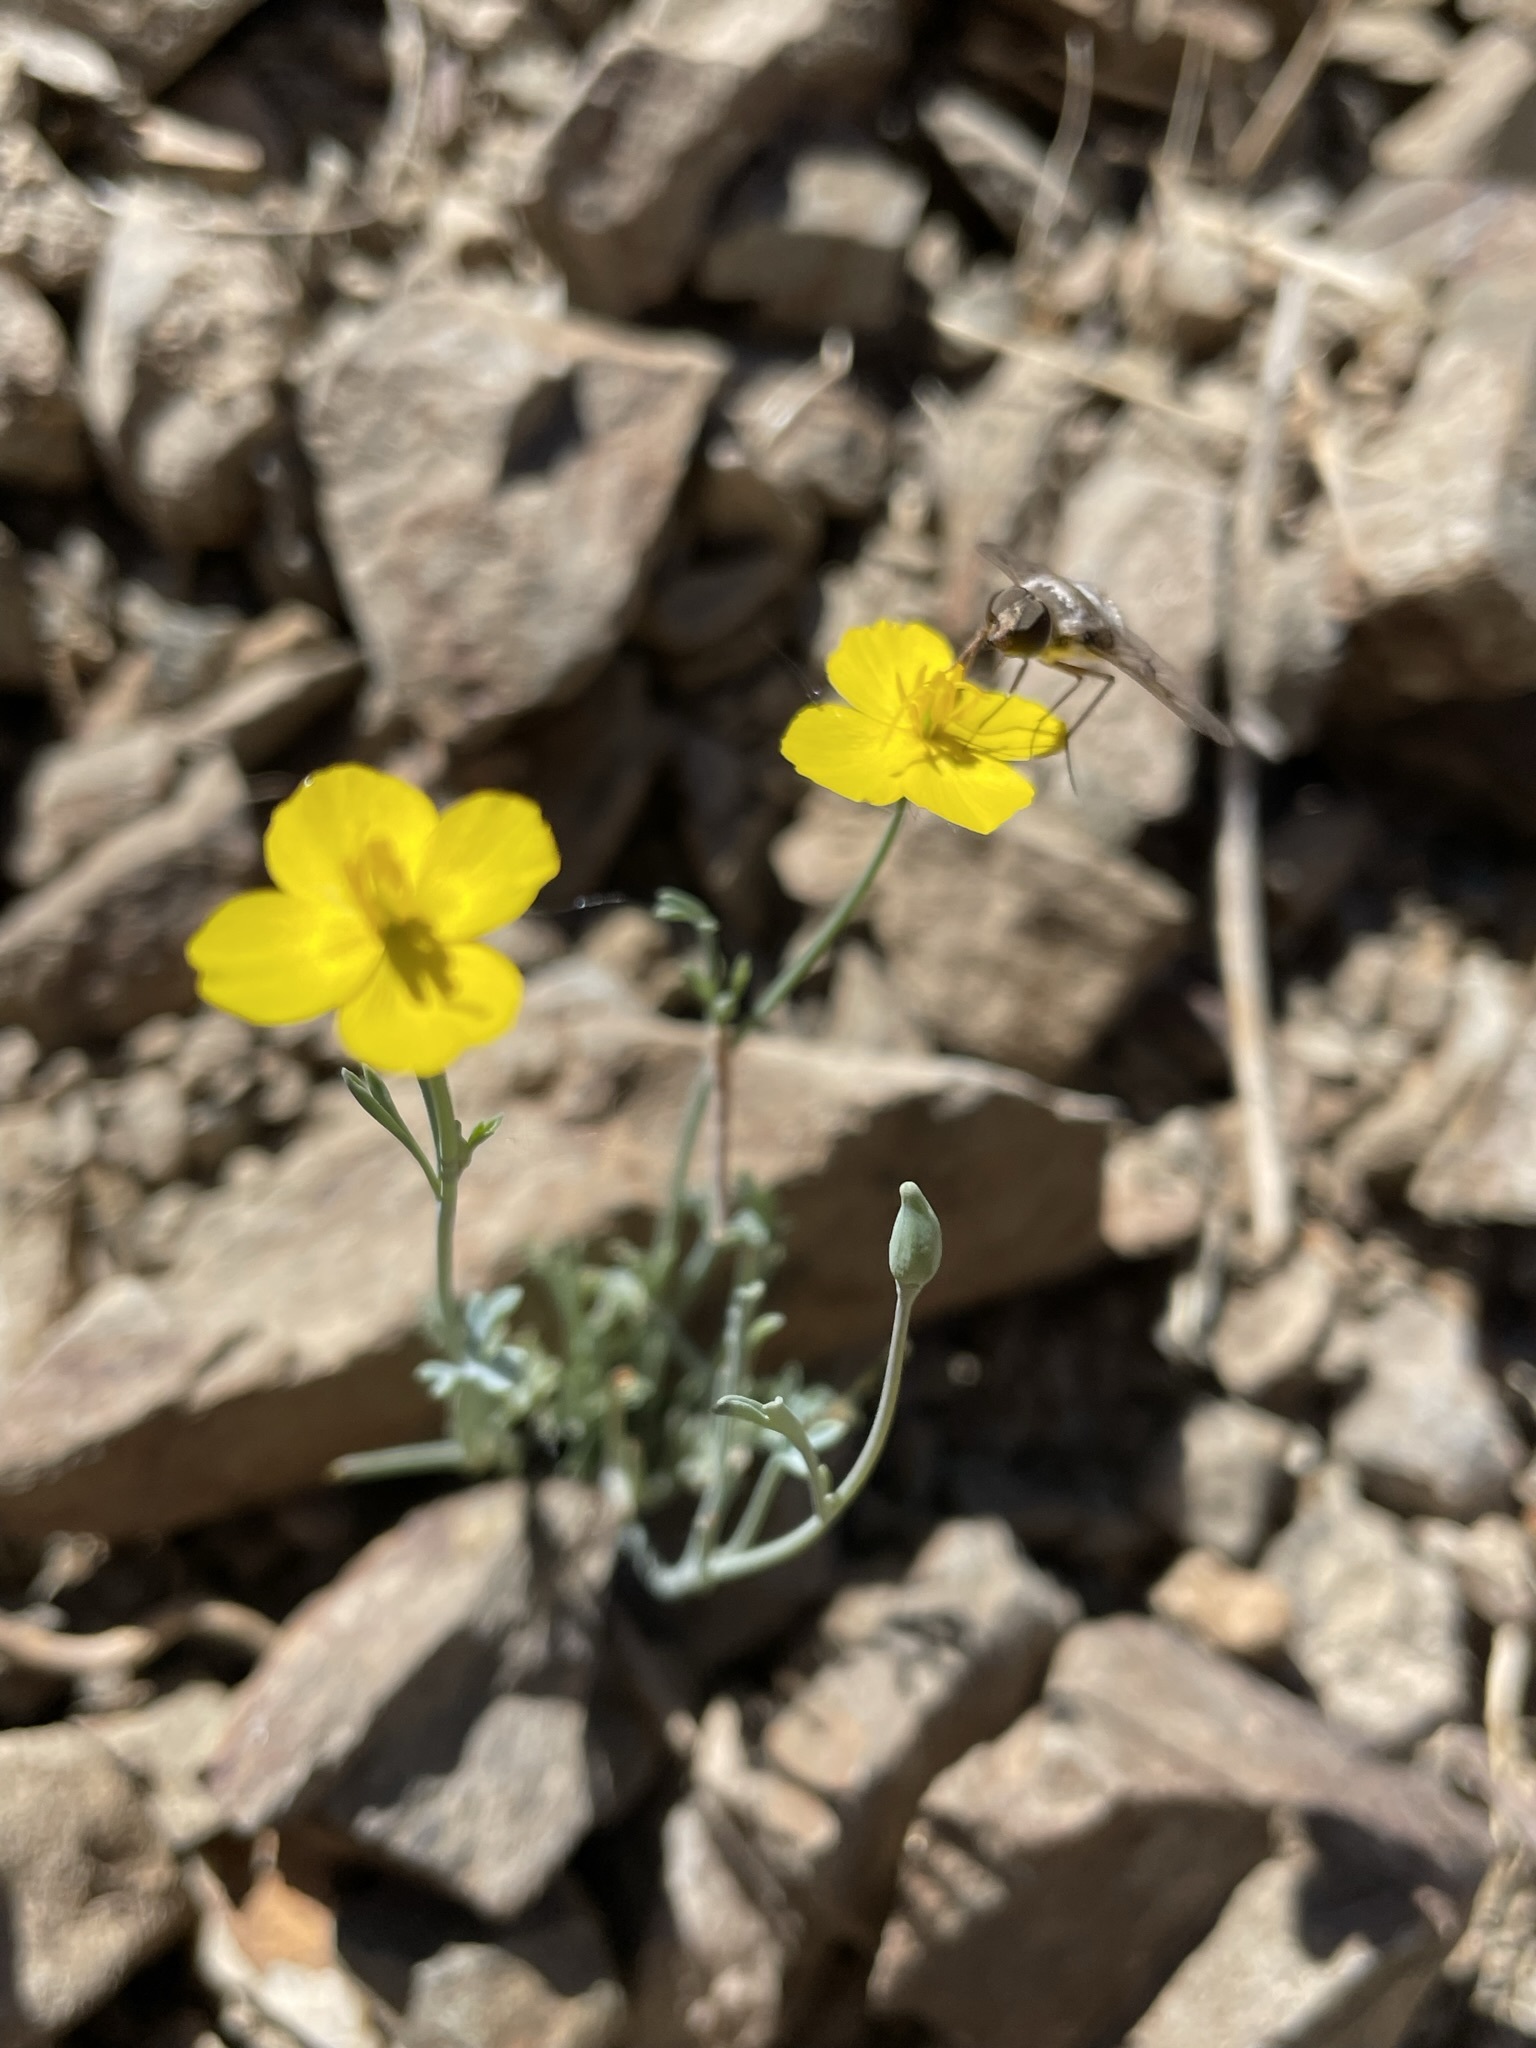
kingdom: Plantae
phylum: Tracheophyta
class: Magnoliopsida
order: Ranunculales
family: Papaveraceae
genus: Eschscholzia
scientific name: Eschscholzia minutiflora
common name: Small-flower california-poppy
